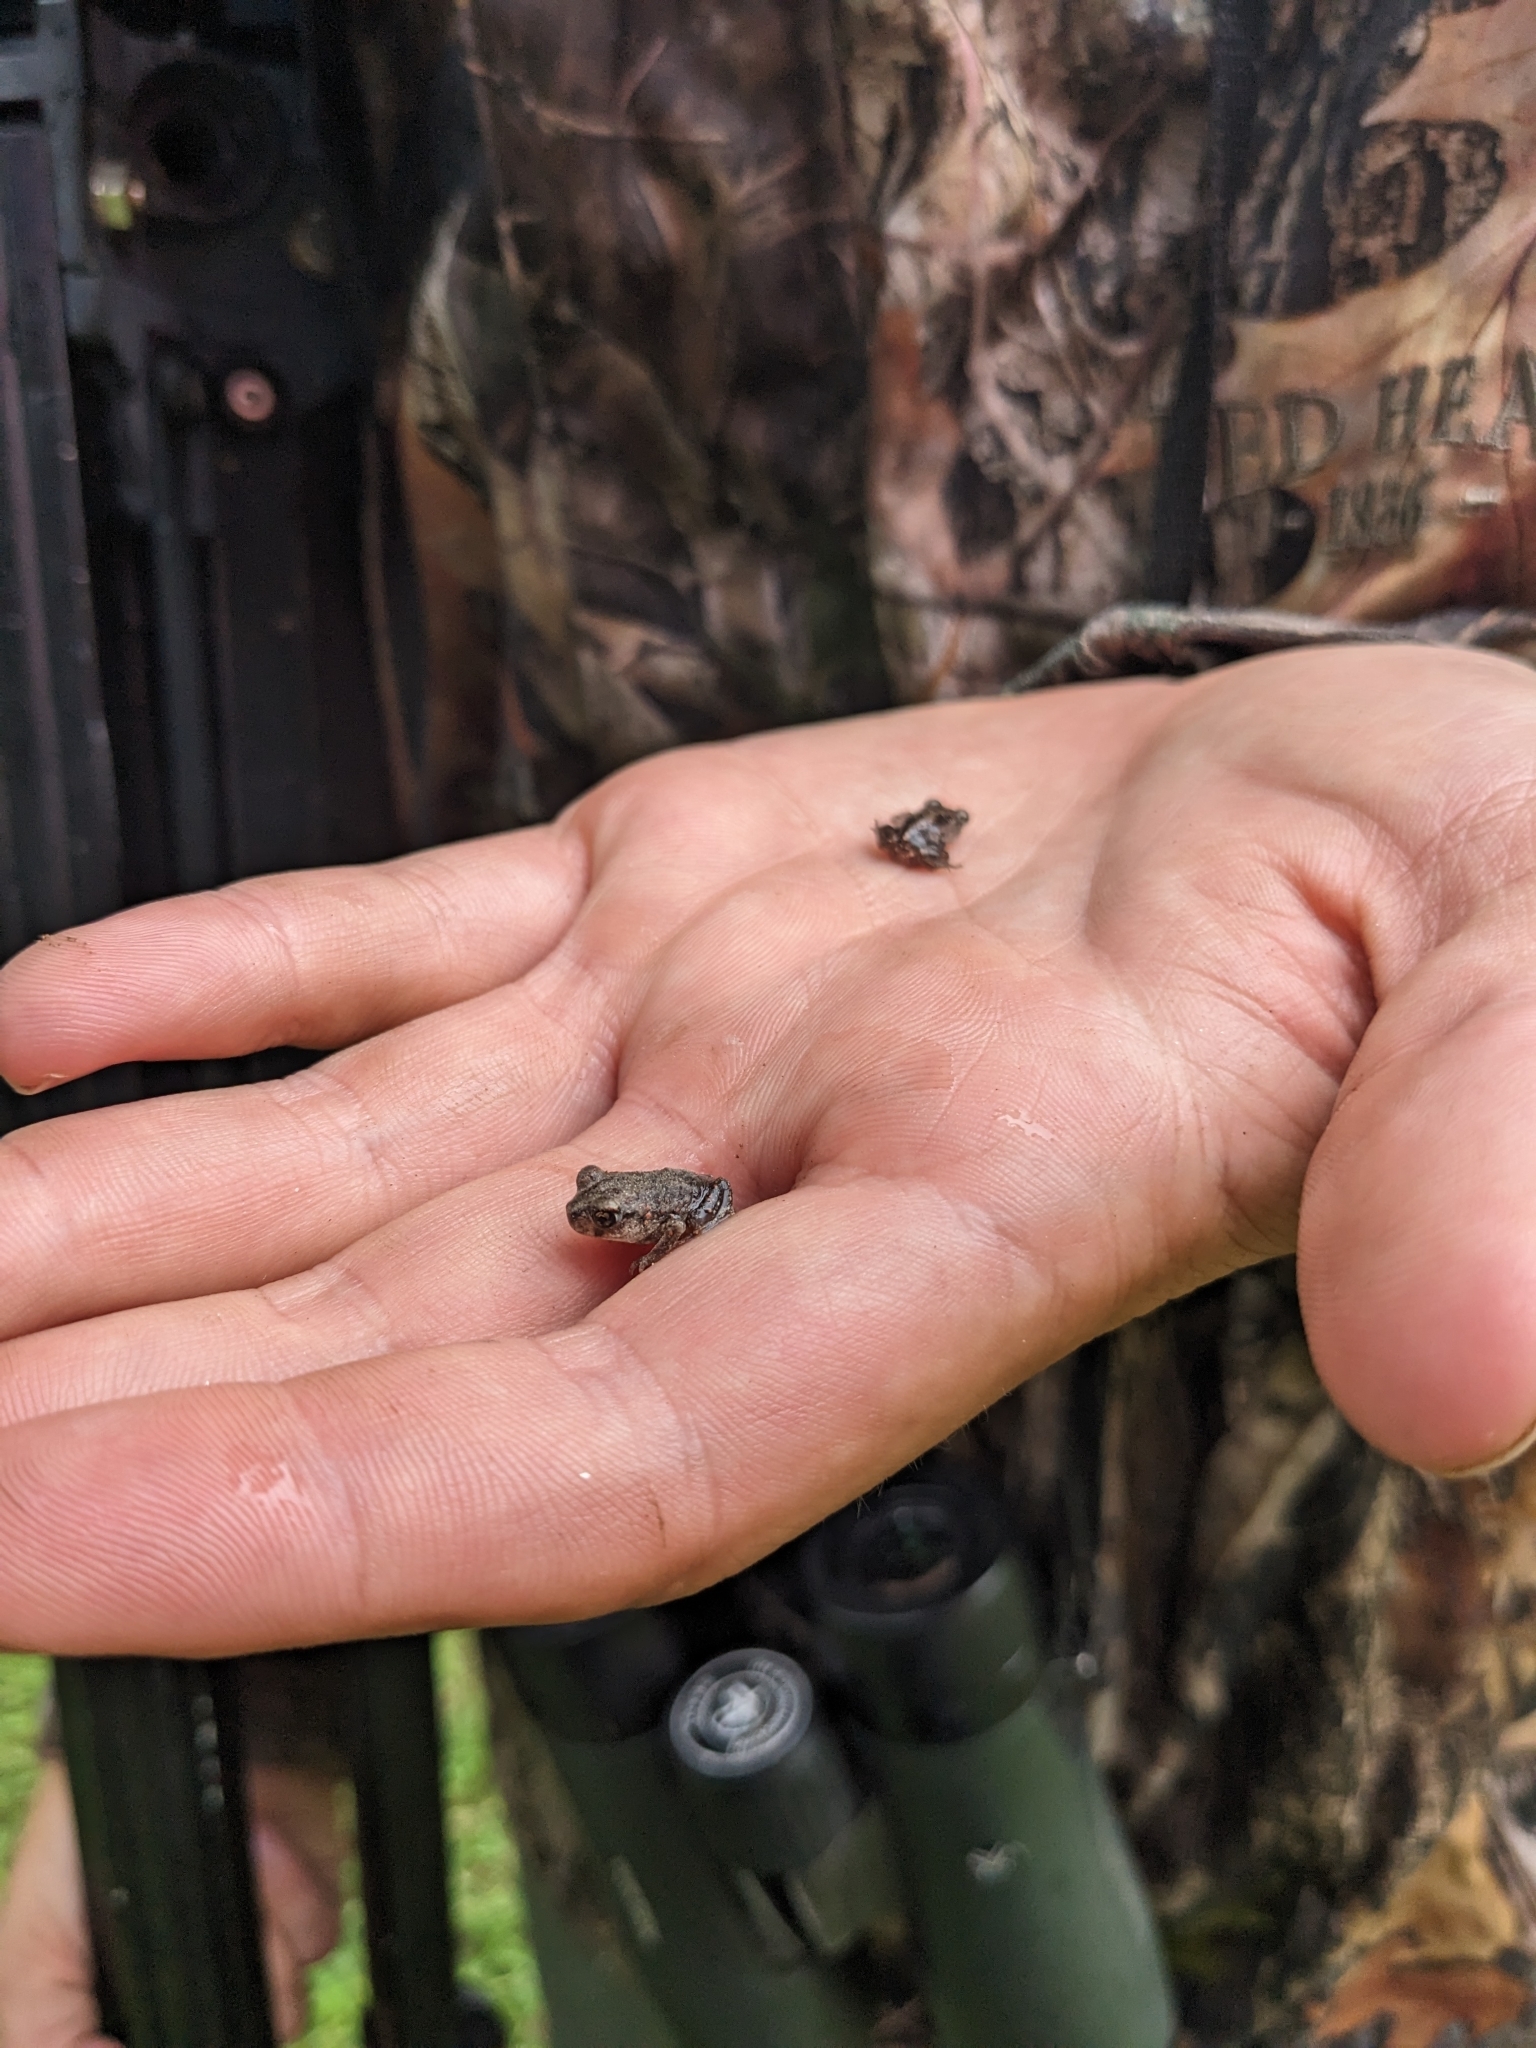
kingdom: Animalia
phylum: Chordata
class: Amphibia
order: Anura
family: Scaphiopodidae
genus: Scaphiopus
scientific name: Scaphiopus holbrookii
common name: Eastern spadefoot toad
